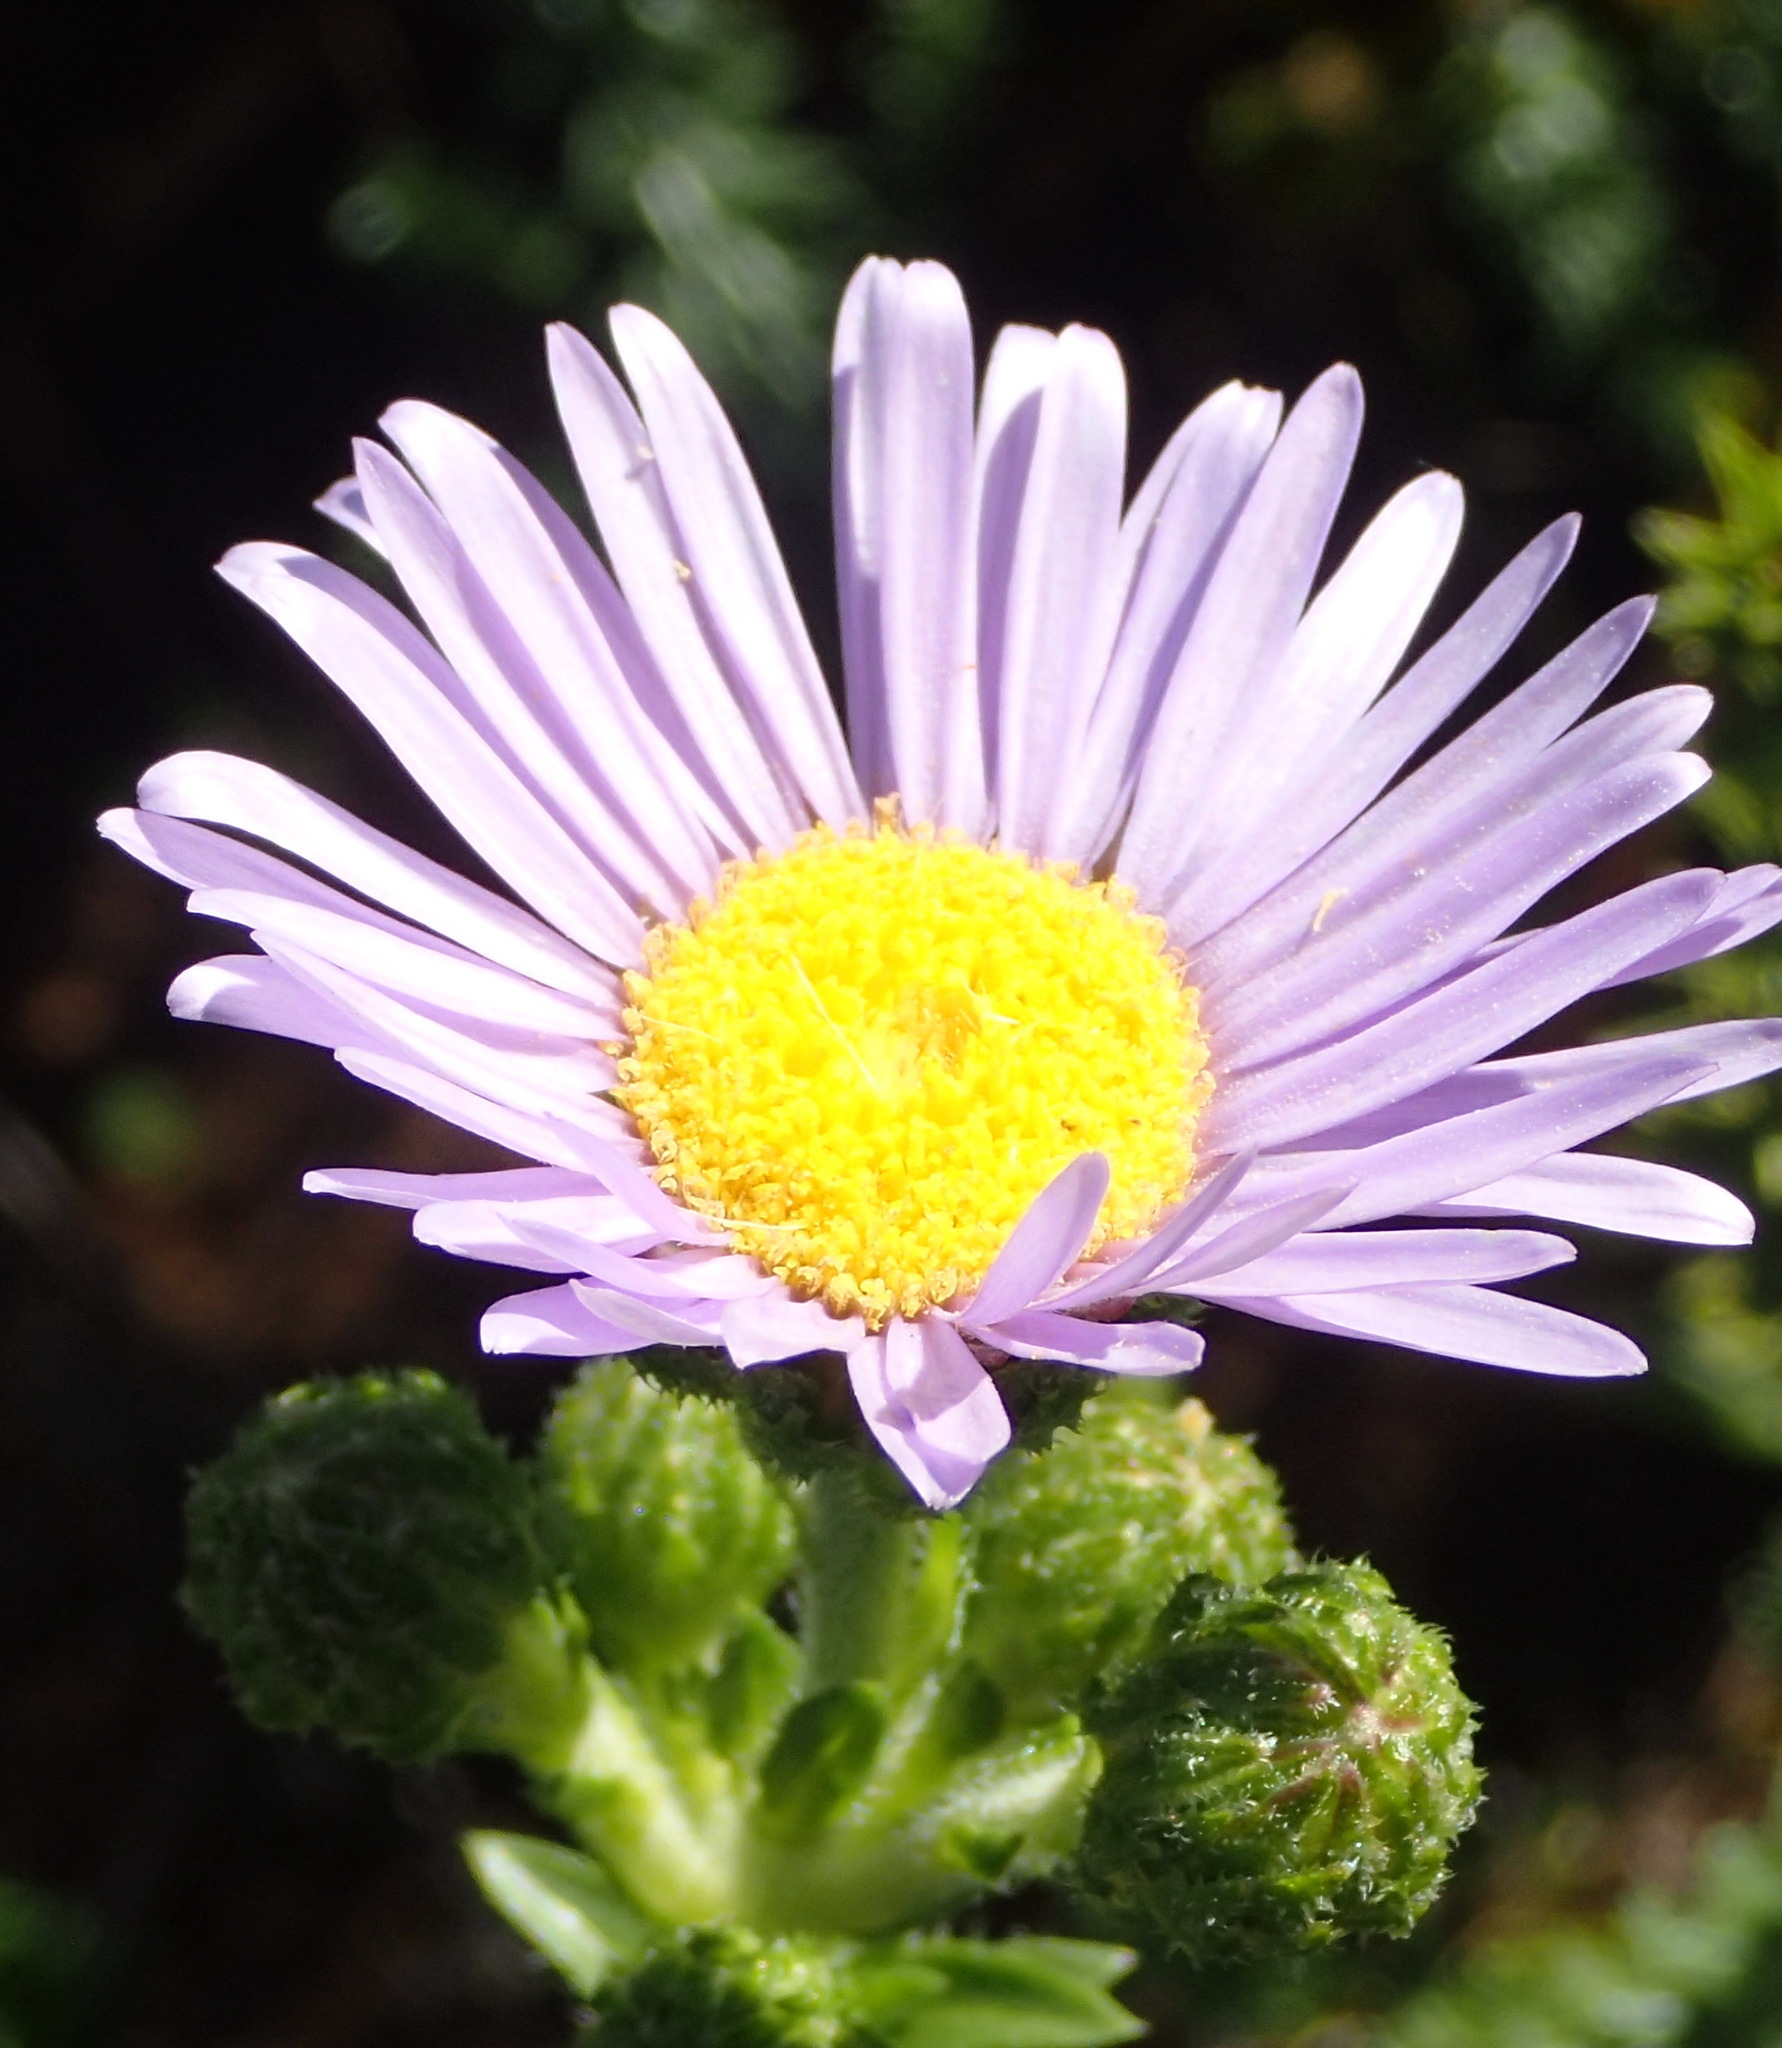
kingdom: Plantae
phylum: Tracheophyta
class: Magnoliopsida
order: Asterales
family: Asteraceae
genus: Felicia
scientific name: Felicia echinata
